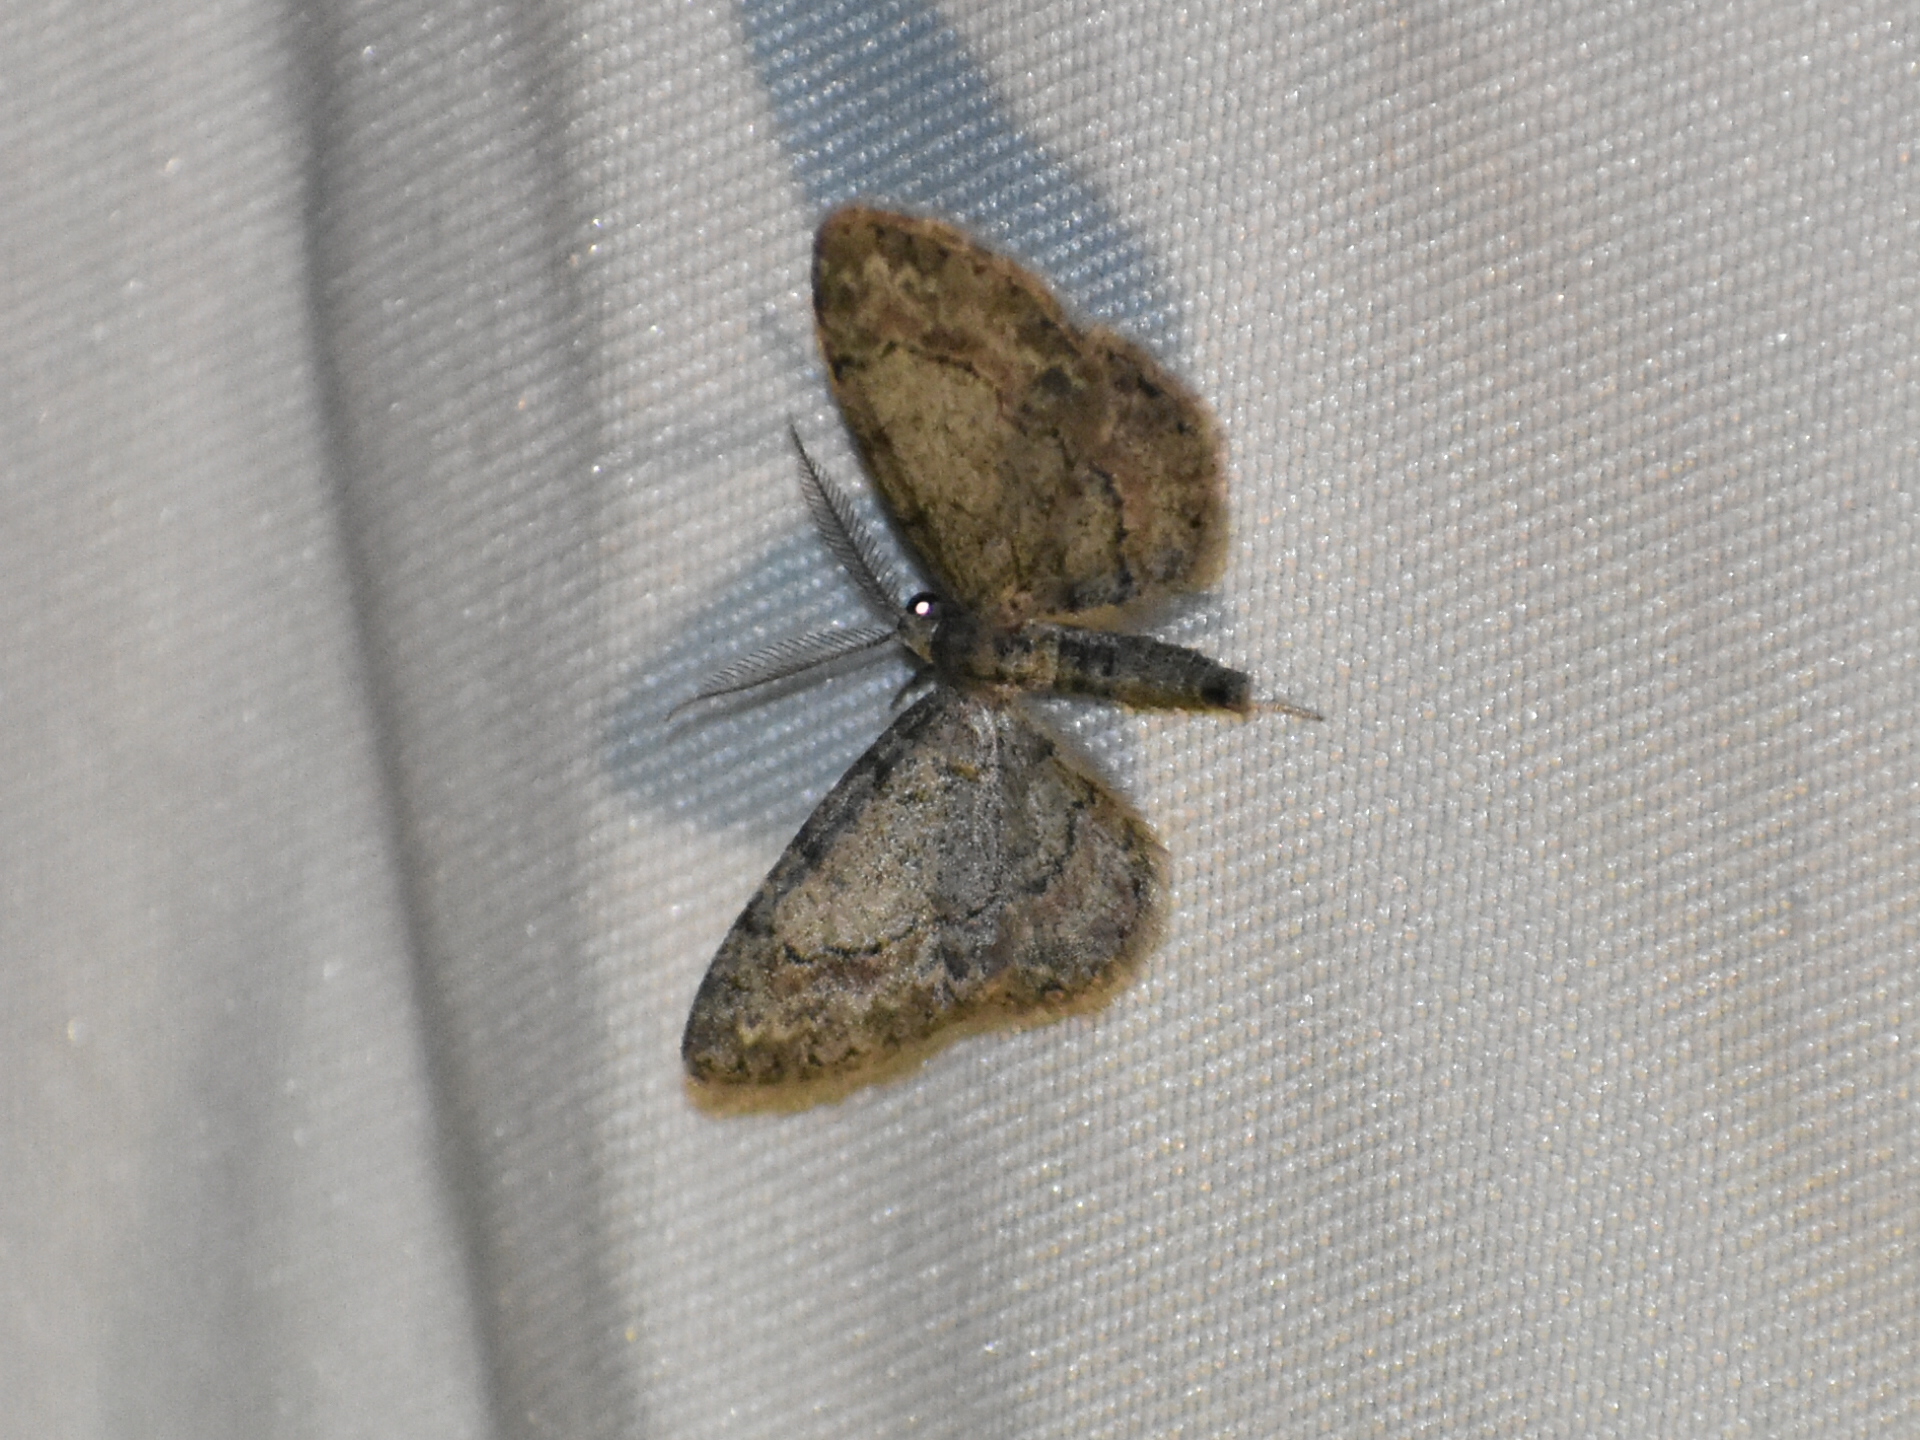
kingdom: Animalia
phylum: Arthropoda
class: Insecta
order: Lepidoptera
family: Geometridae
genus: Glenoides
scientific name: Glenoides texanaria
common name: Texas gray
